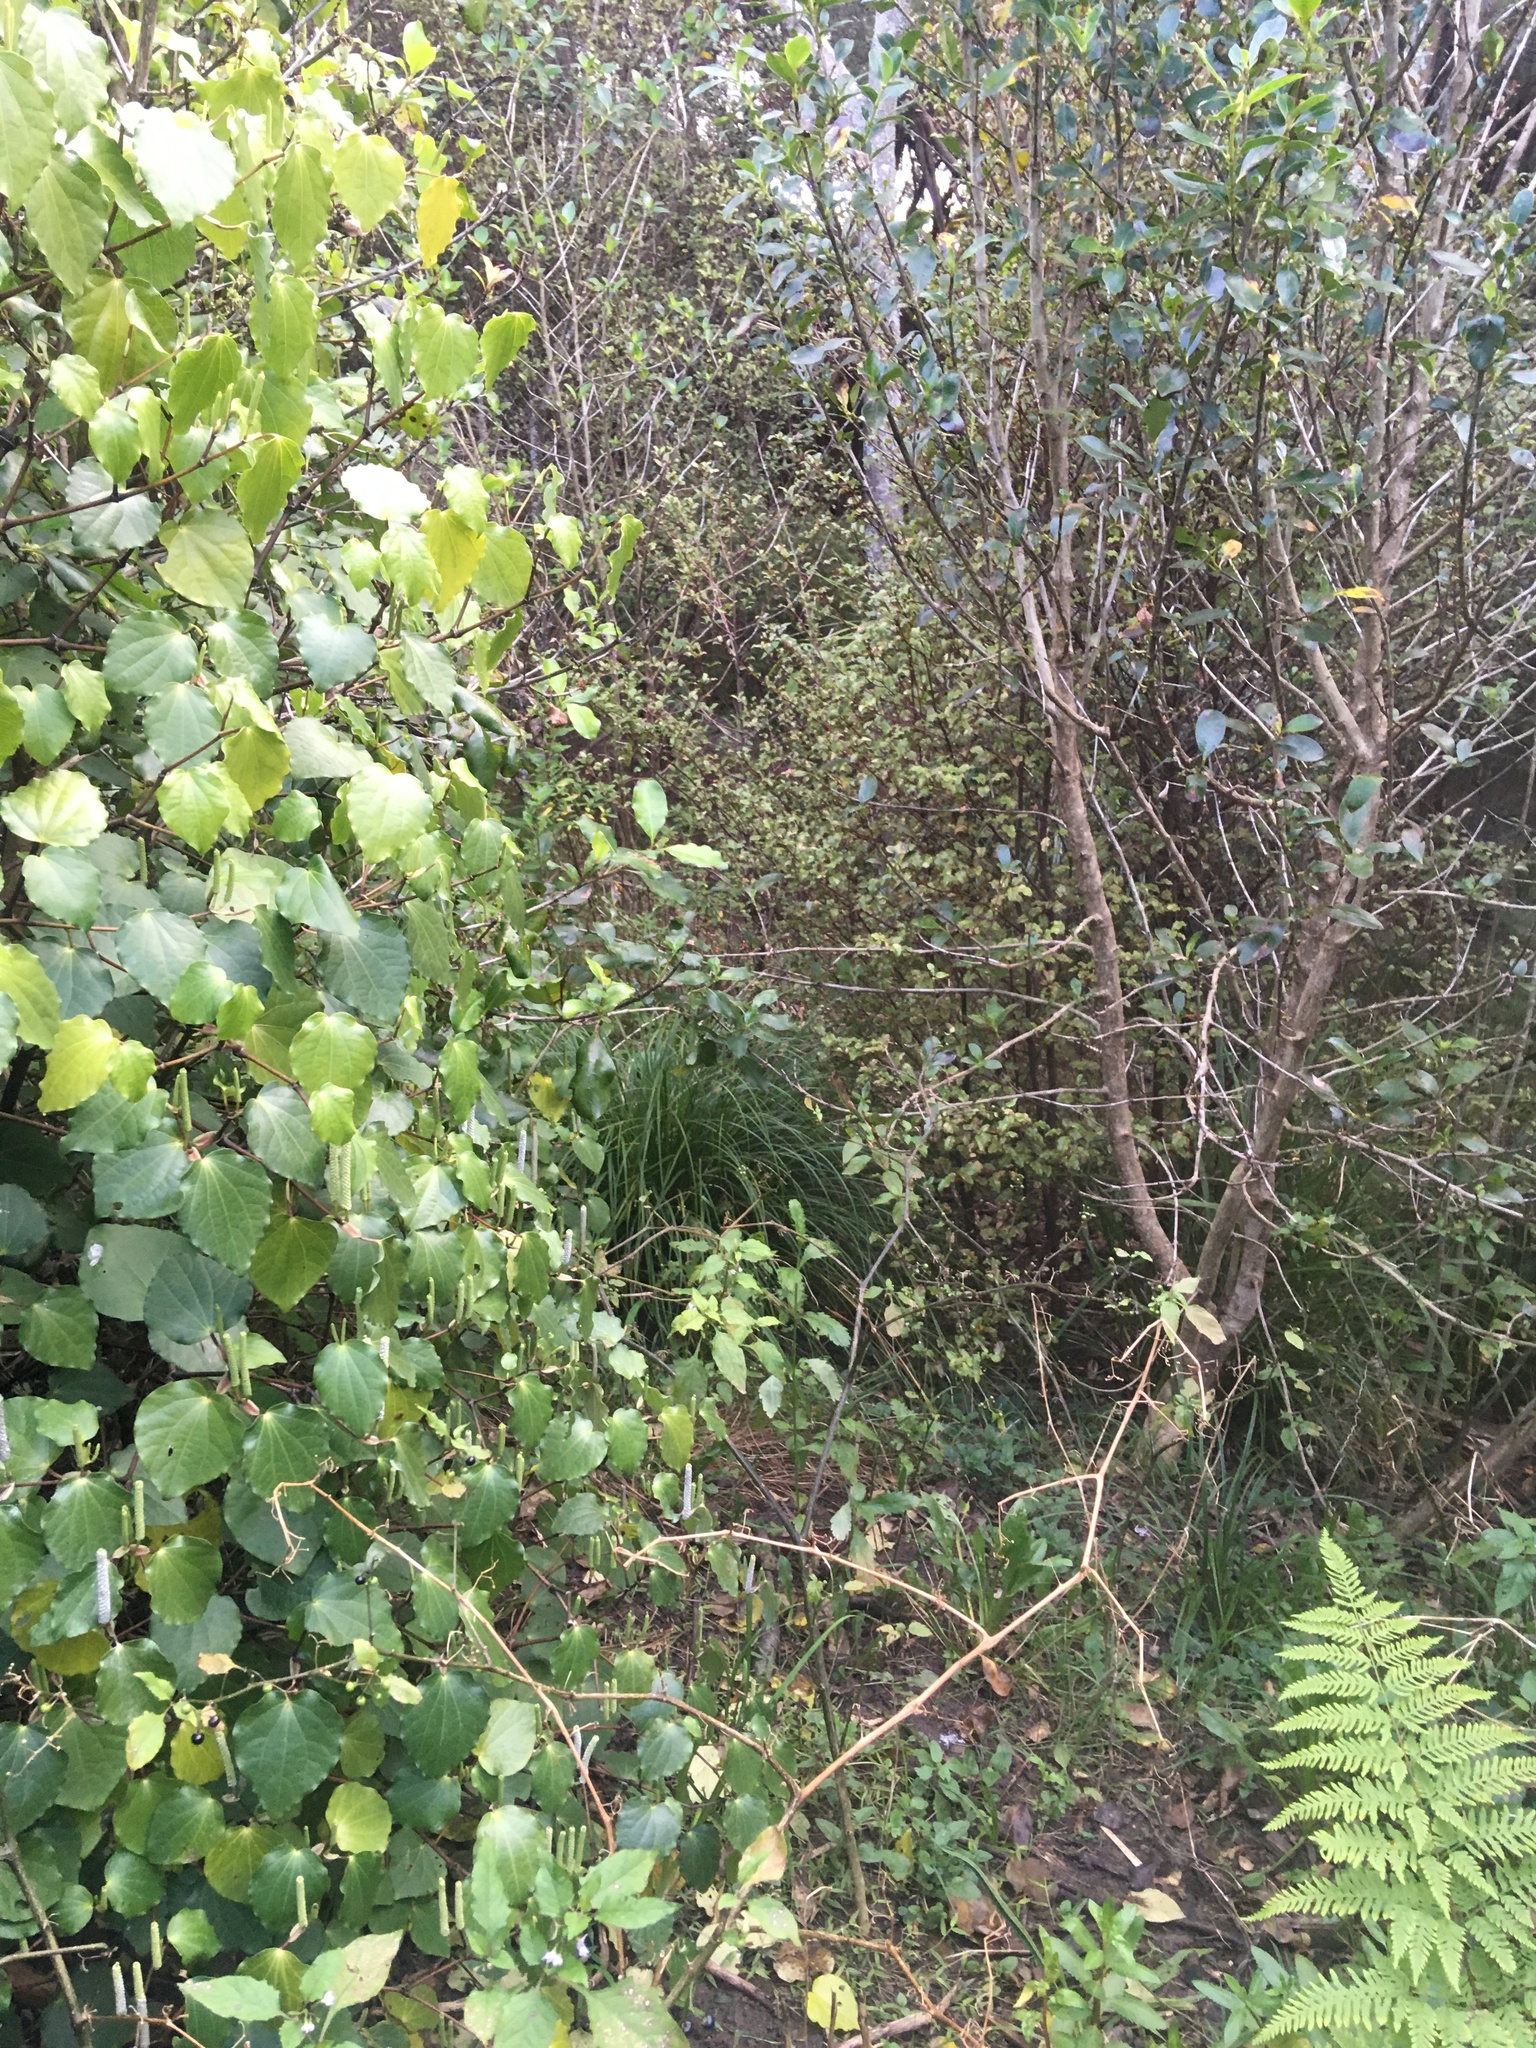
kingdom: Plantae
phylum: Tracheophyta
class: Magnoliopsida
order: Piperales
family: Piperaceae
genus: Macropiper
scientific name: Macropiper excelsum
